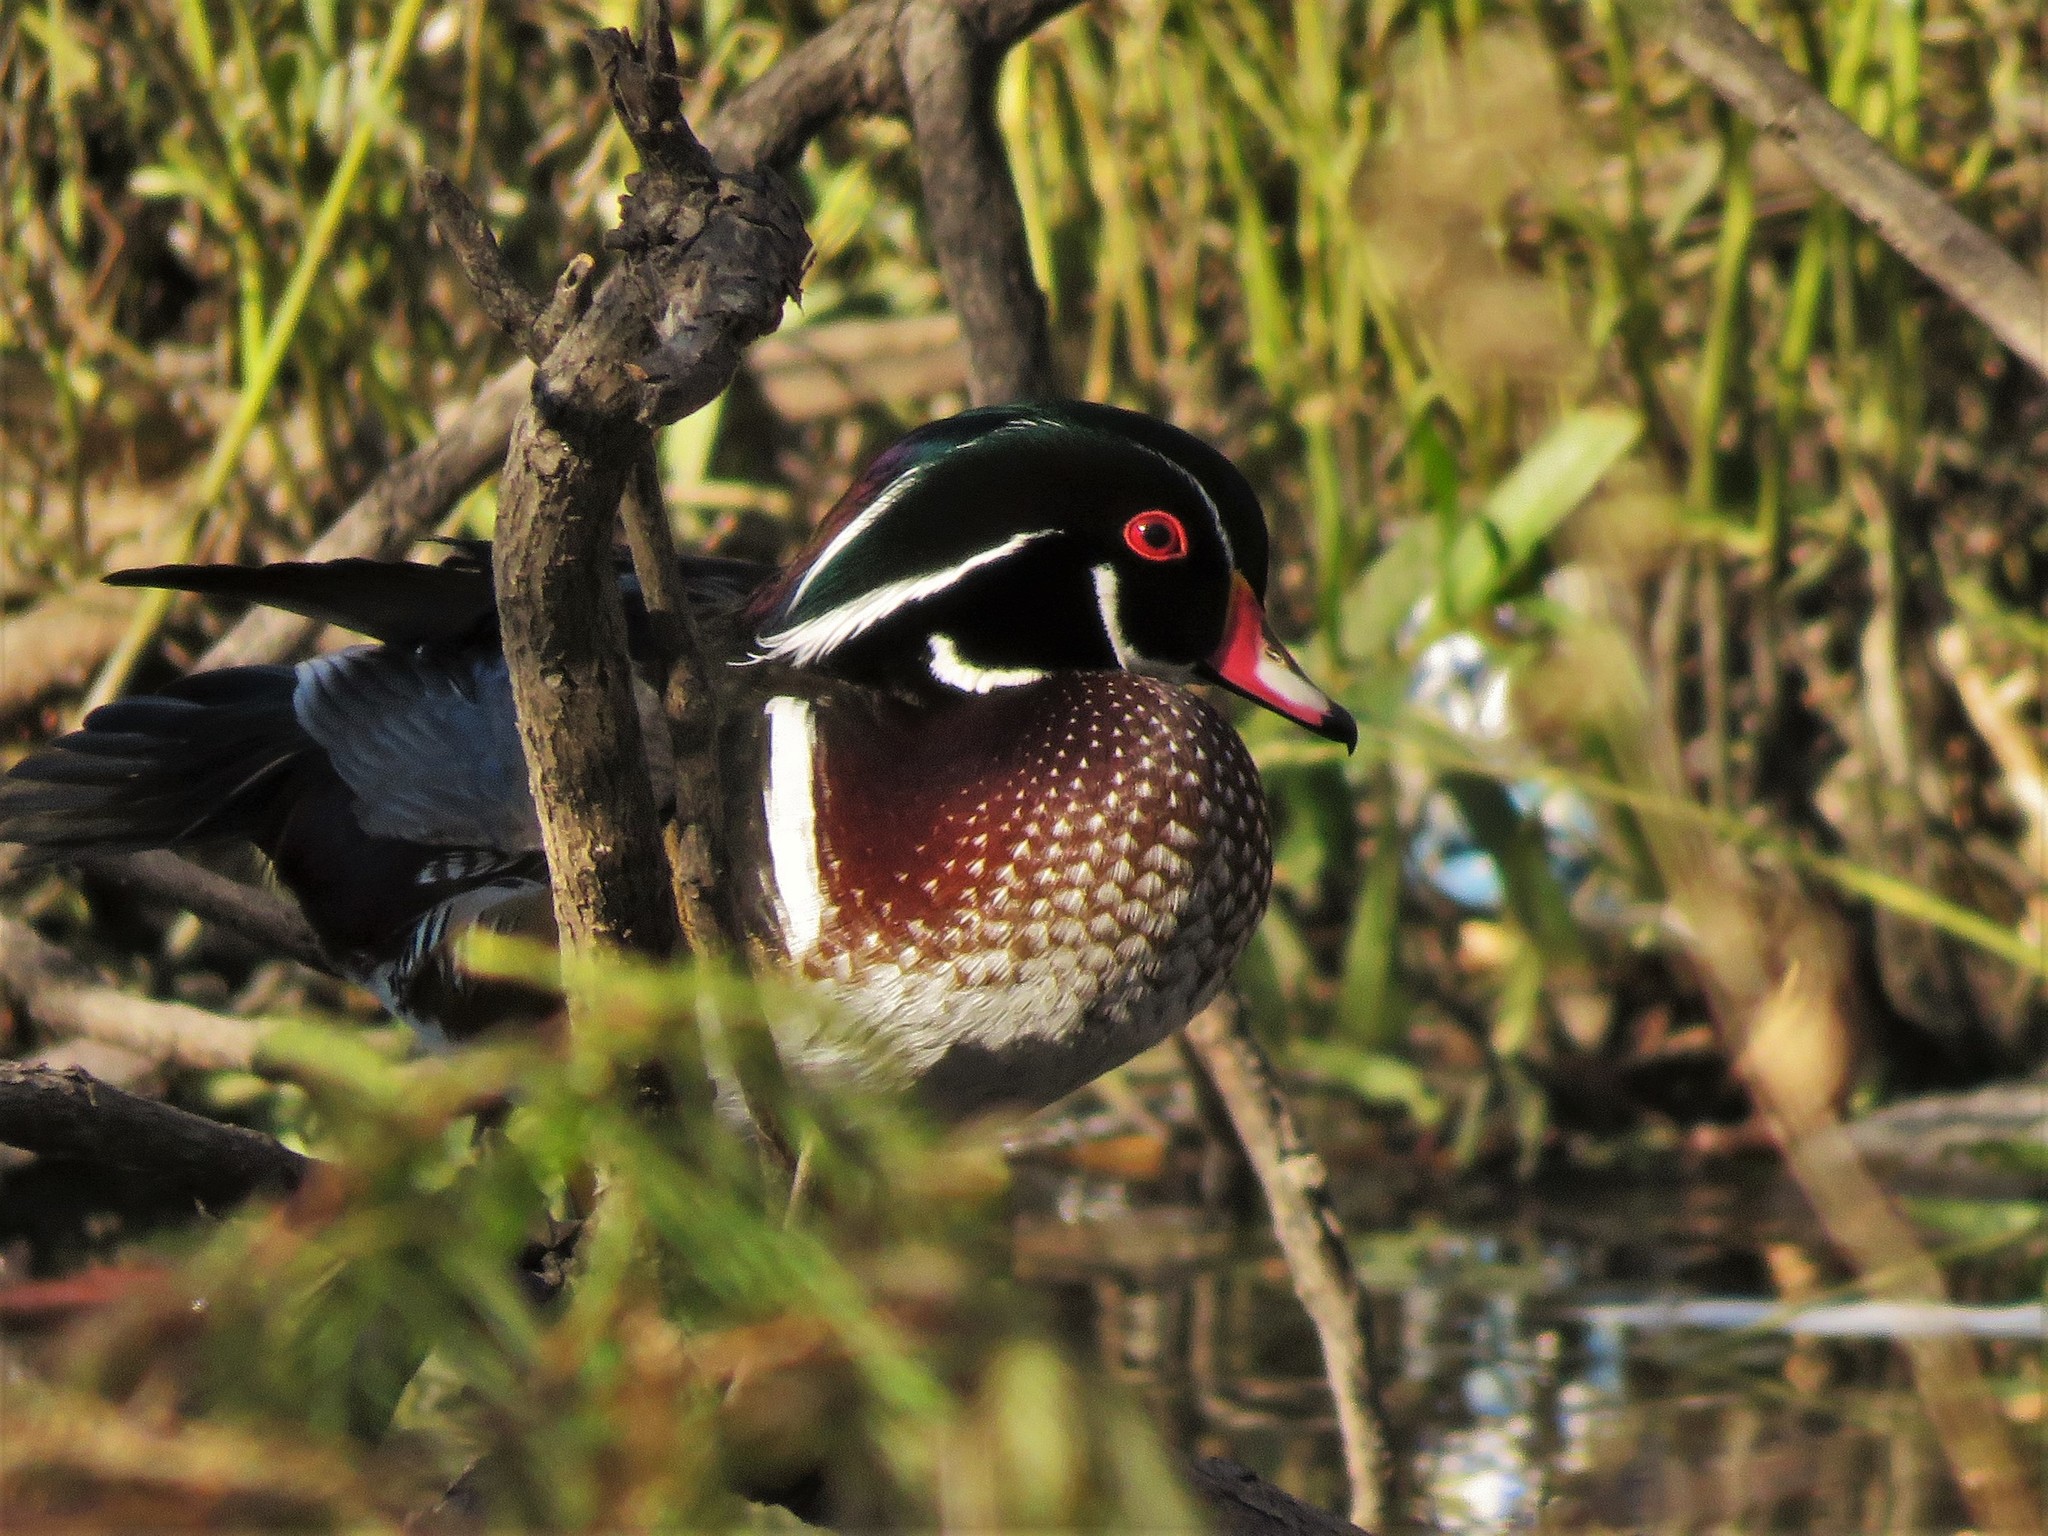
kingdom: Animalia
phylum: Chordata
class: Aves
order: Anseriformes
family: Anatidae
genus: Aix
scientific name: Aix sponsa
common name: Wood duck
